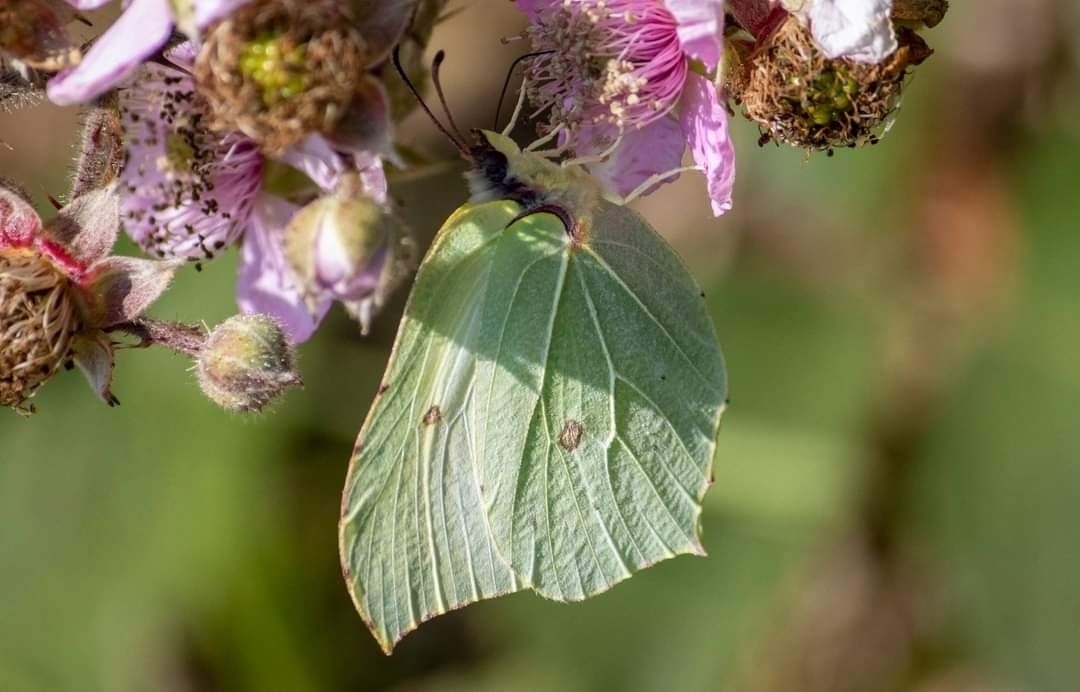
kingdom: Animalia
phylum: Arthropoda
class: Insecta
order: Lepidoptera
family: Pieridae
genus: Gonepteryx
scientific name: Gonepteryx rhamni
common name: Brimstone
